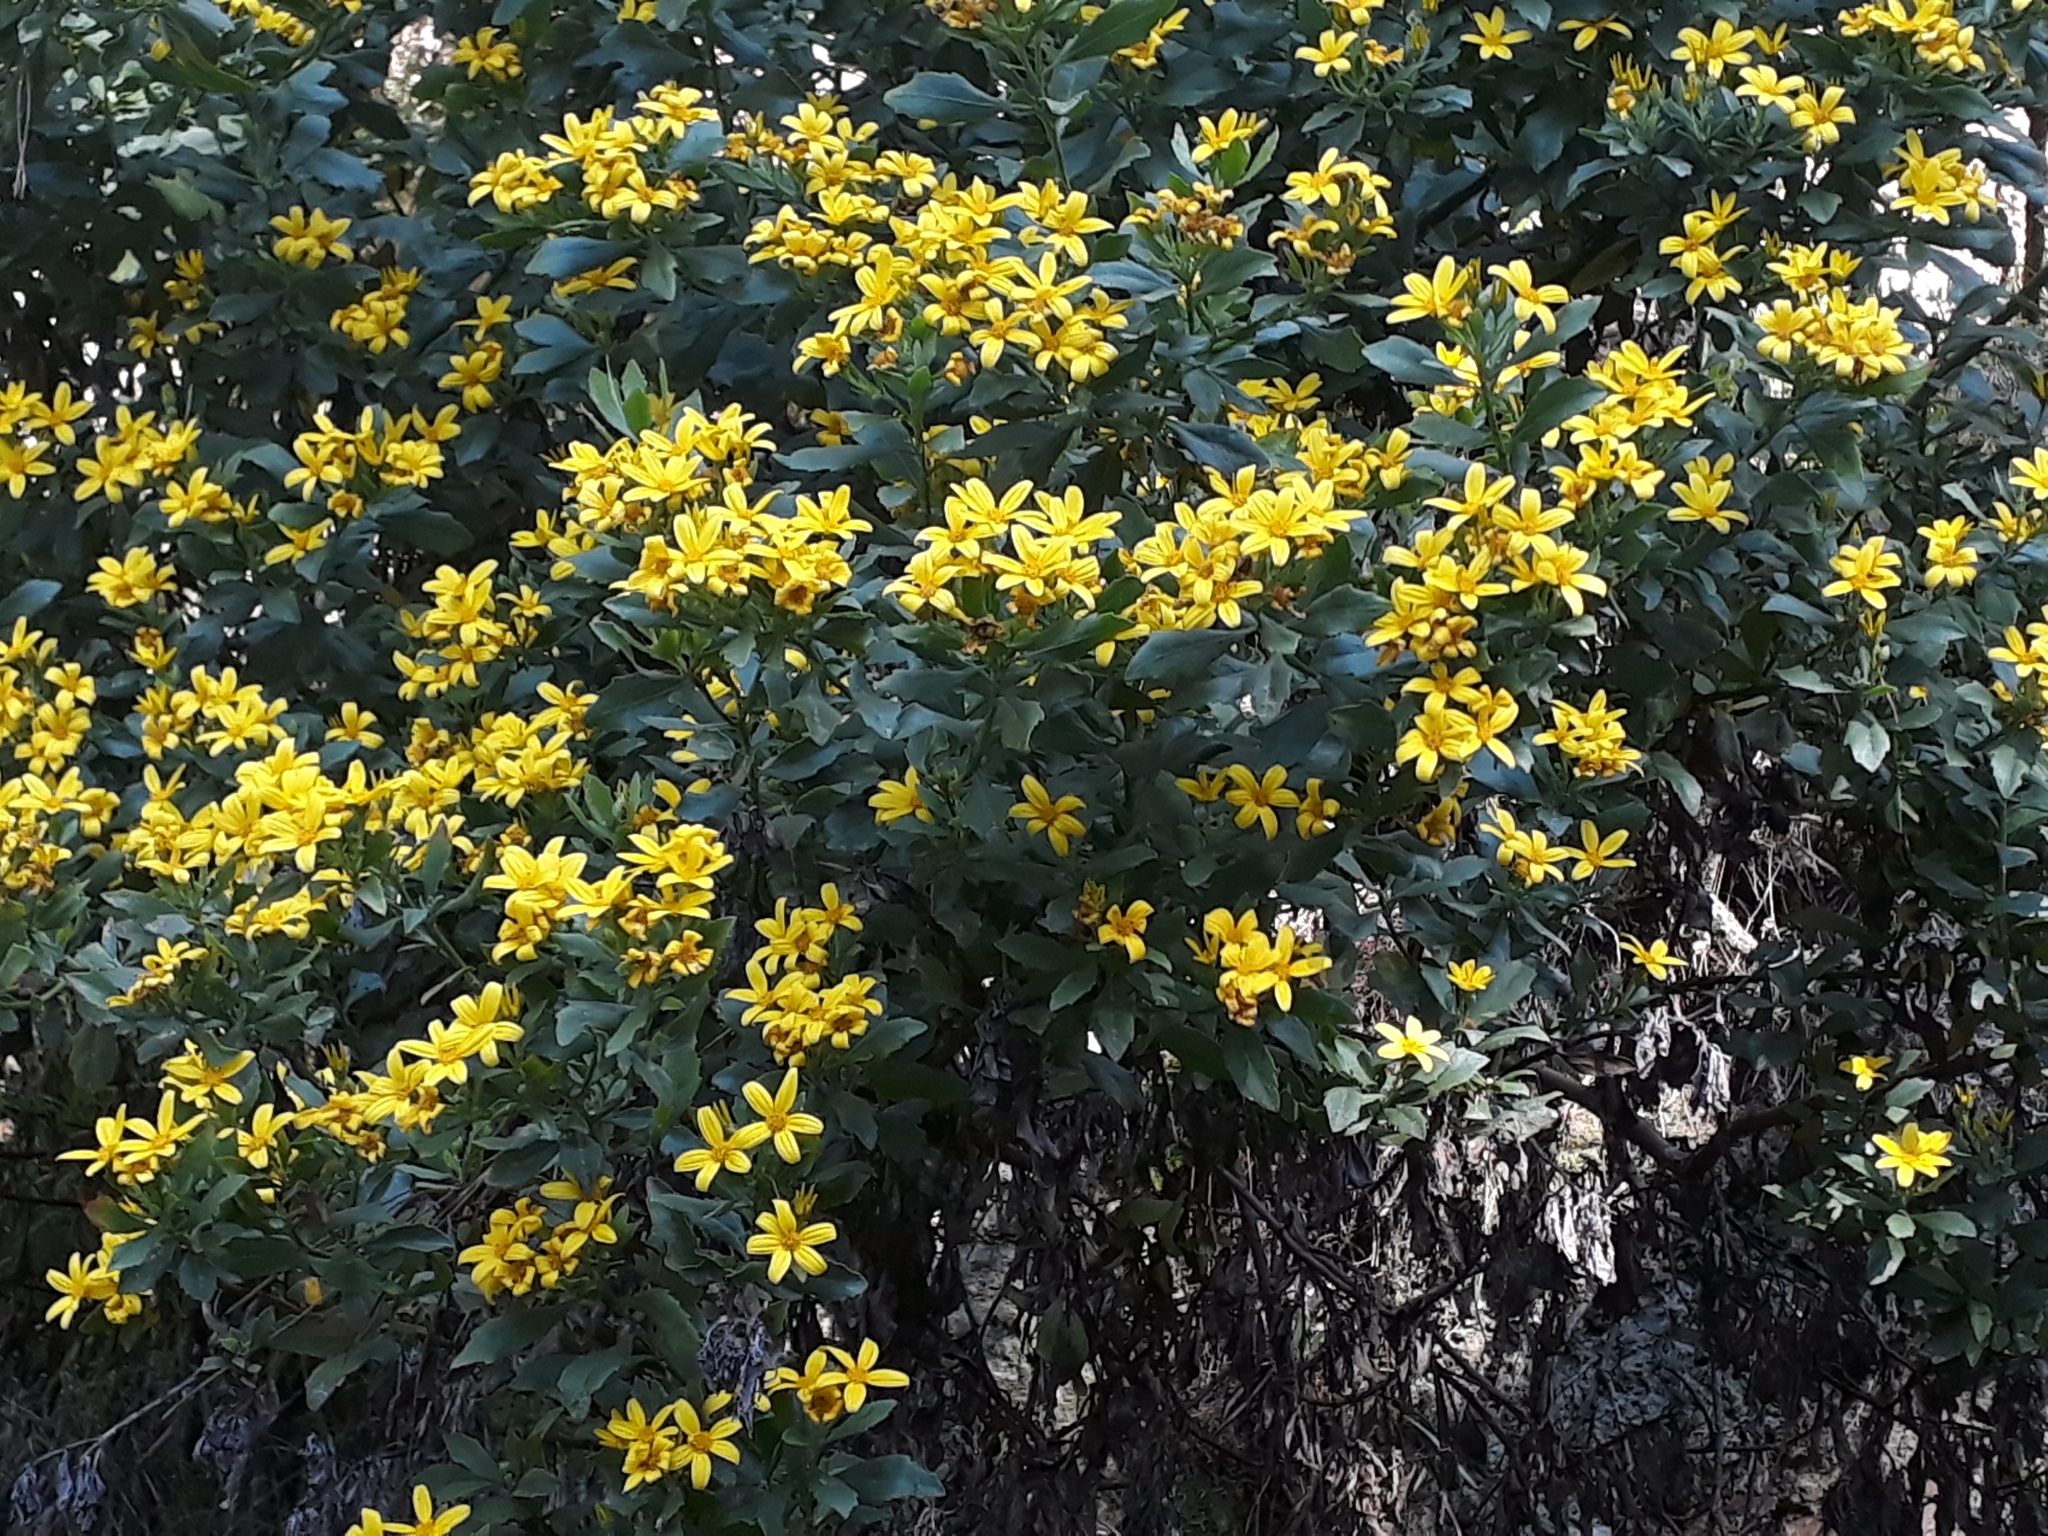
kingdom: Plantae
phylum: Tracheophyta
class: Magnoliopsida
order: Asterales
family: Asteraceae
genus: Osteospermum
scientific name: Osteospermum moniliferum
